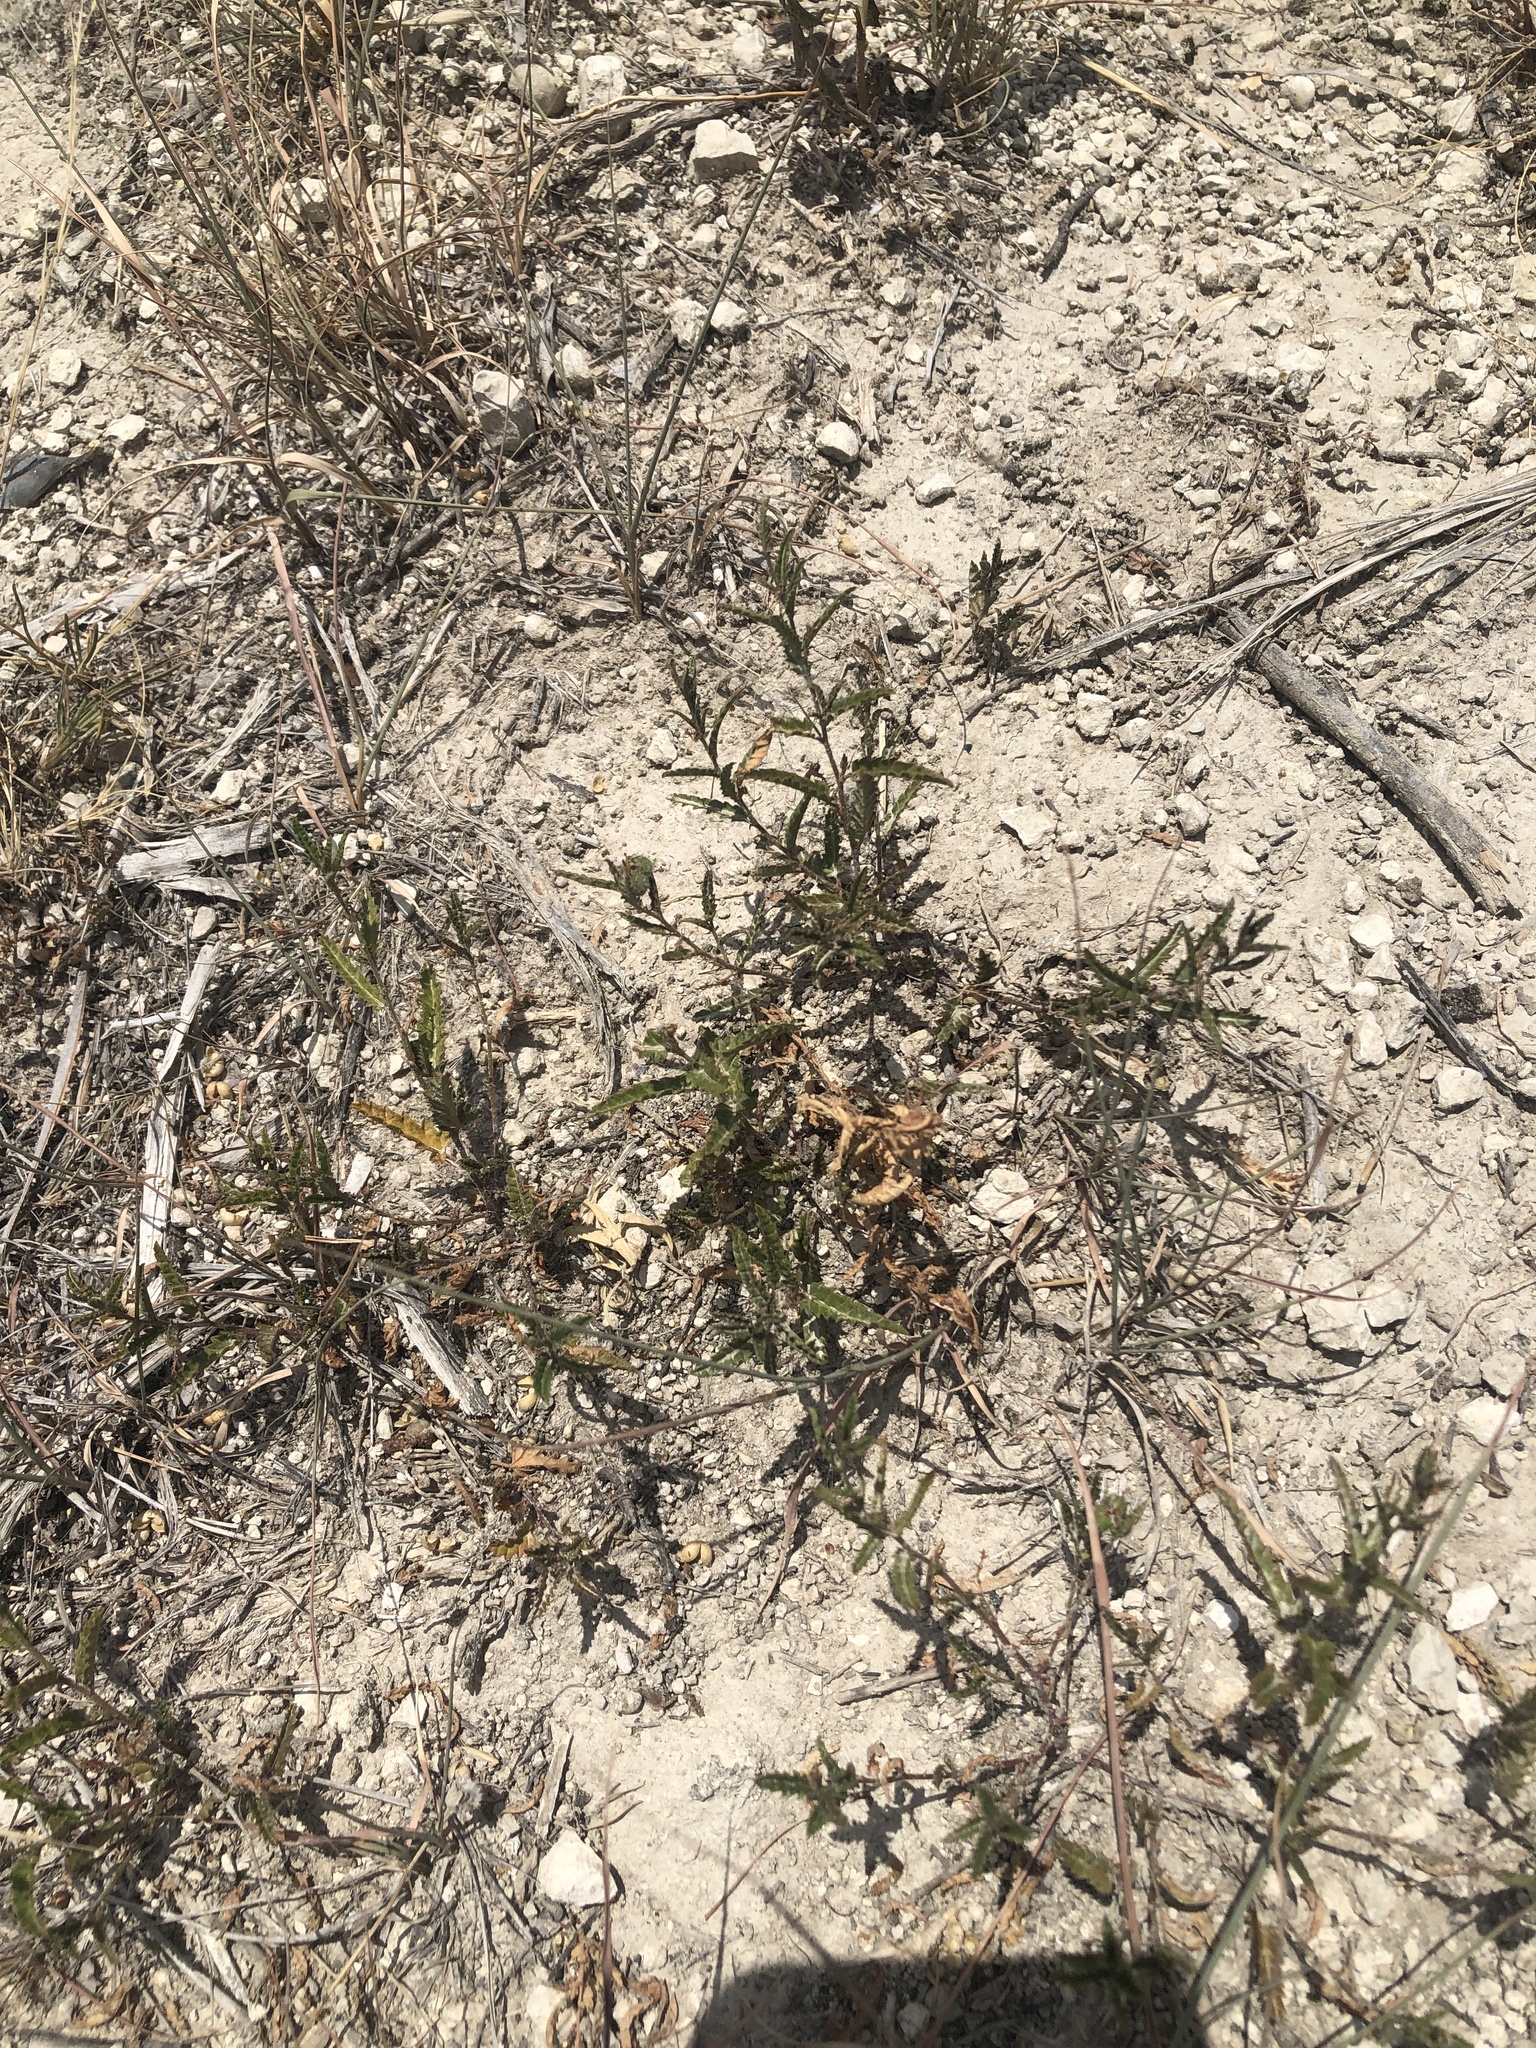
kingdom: Plantae
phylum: Tracheophyta
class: Magnoliopsida
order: Malpighiales
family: Euphorbiaceae
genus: Tragia
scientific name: Tragia ramosa
